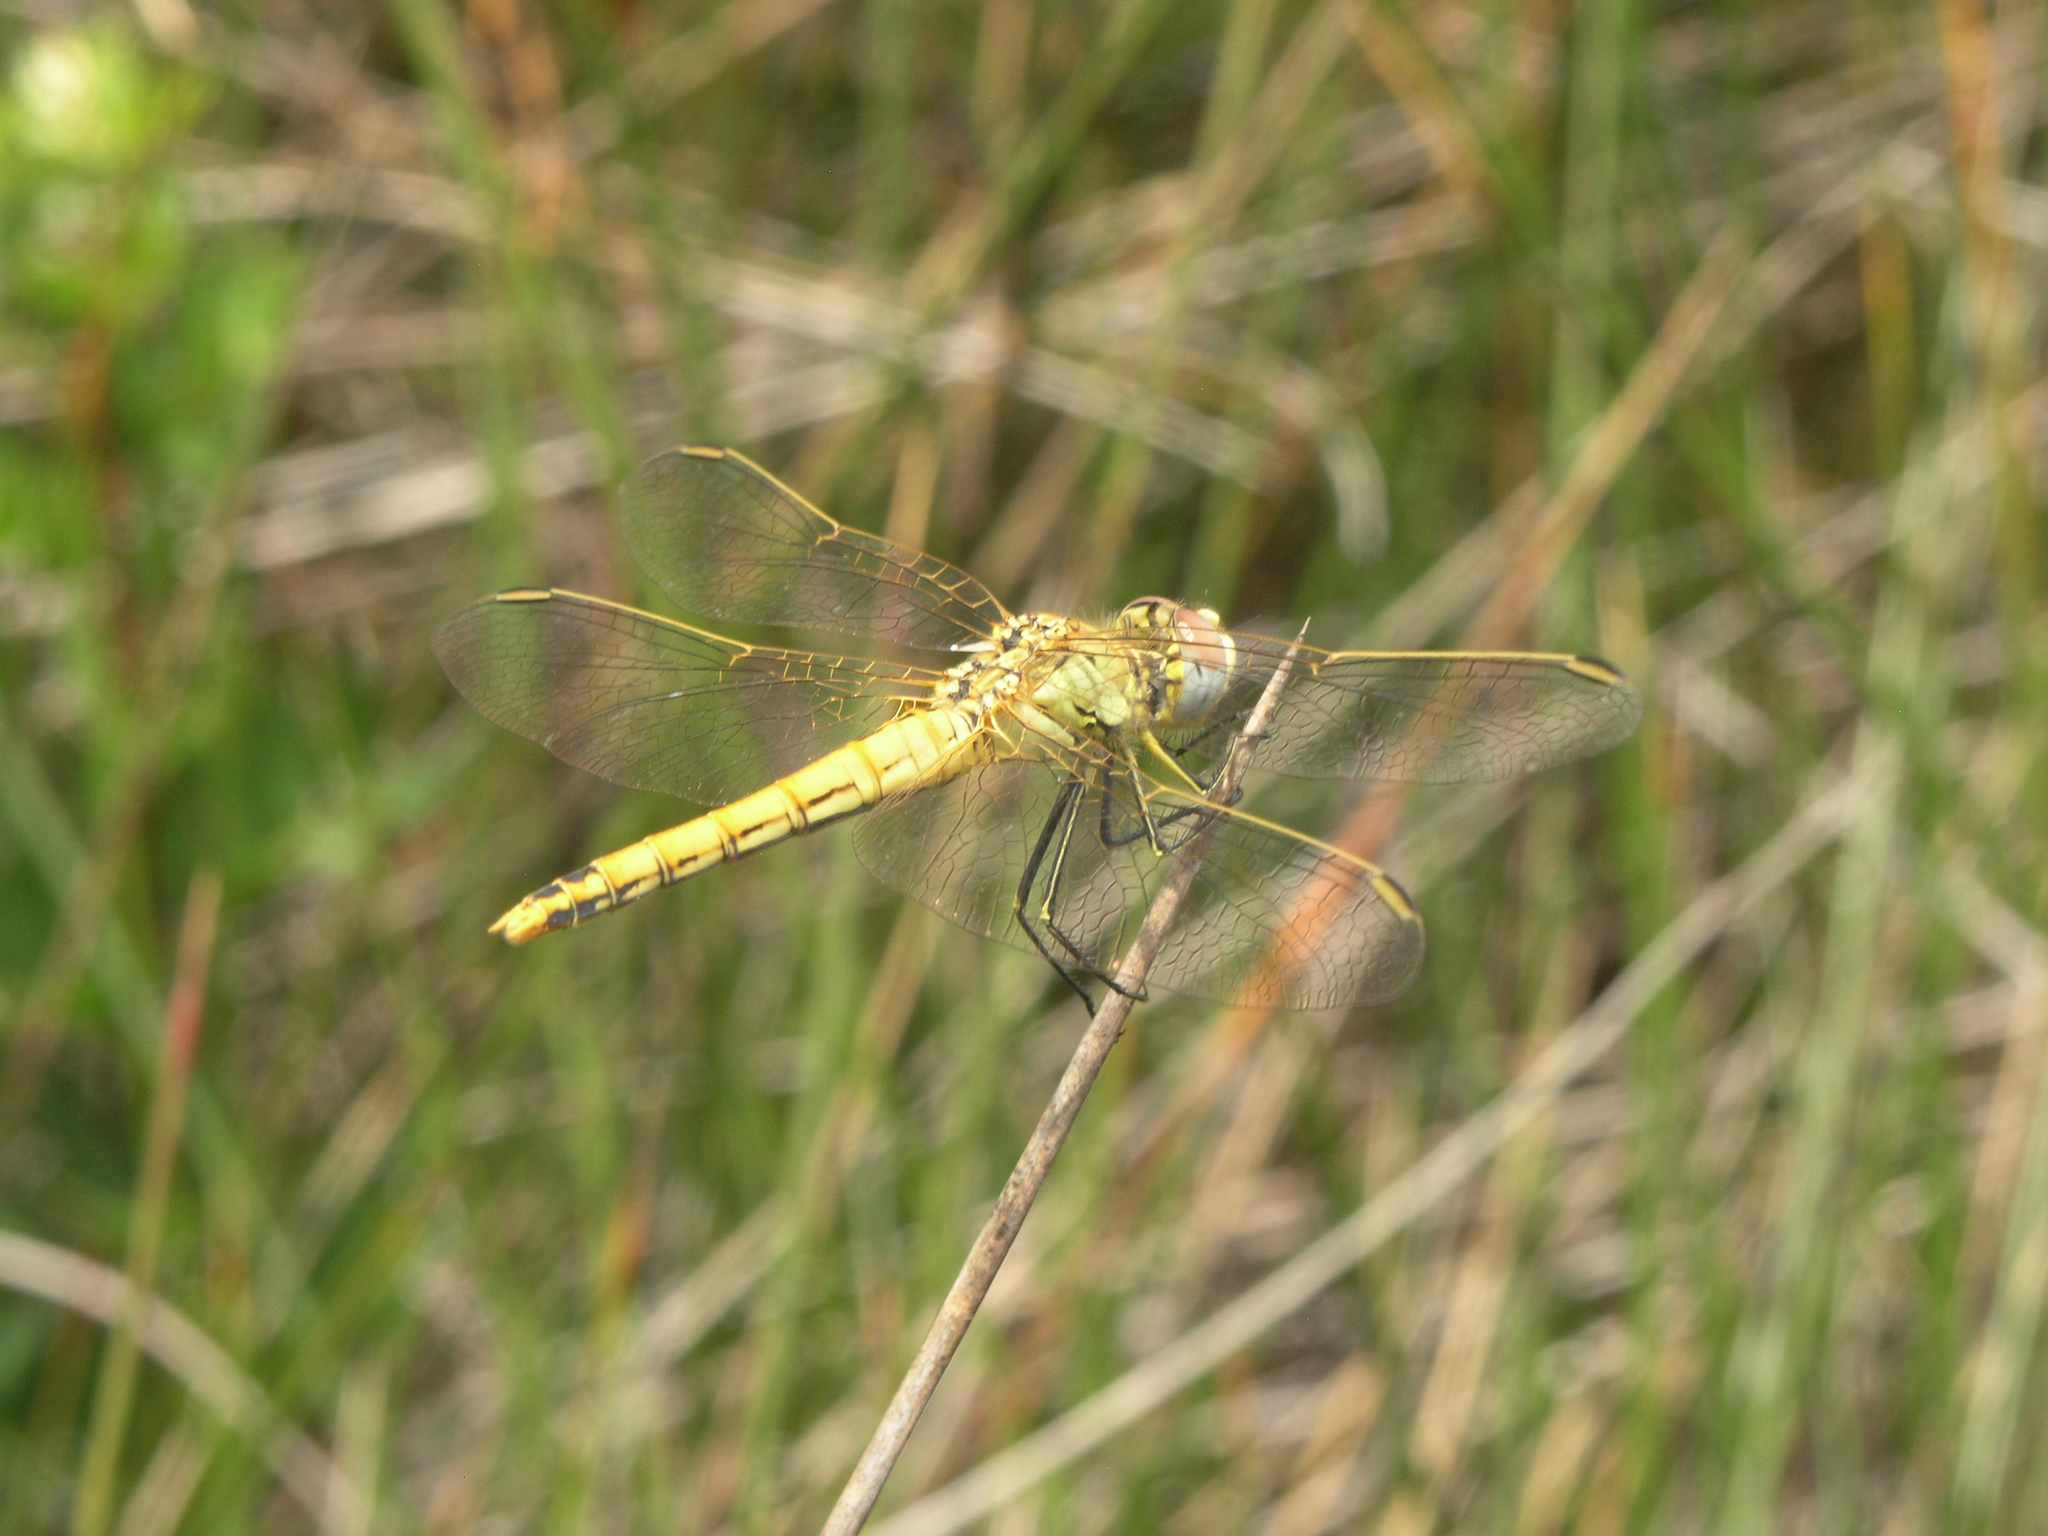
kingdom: Animalia
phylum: Arthropoda
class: Insecta
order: Odonata
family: Libellulidae
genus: Sympetrum
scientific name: Sympetrum fonscolombii
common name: Red-veined darter
